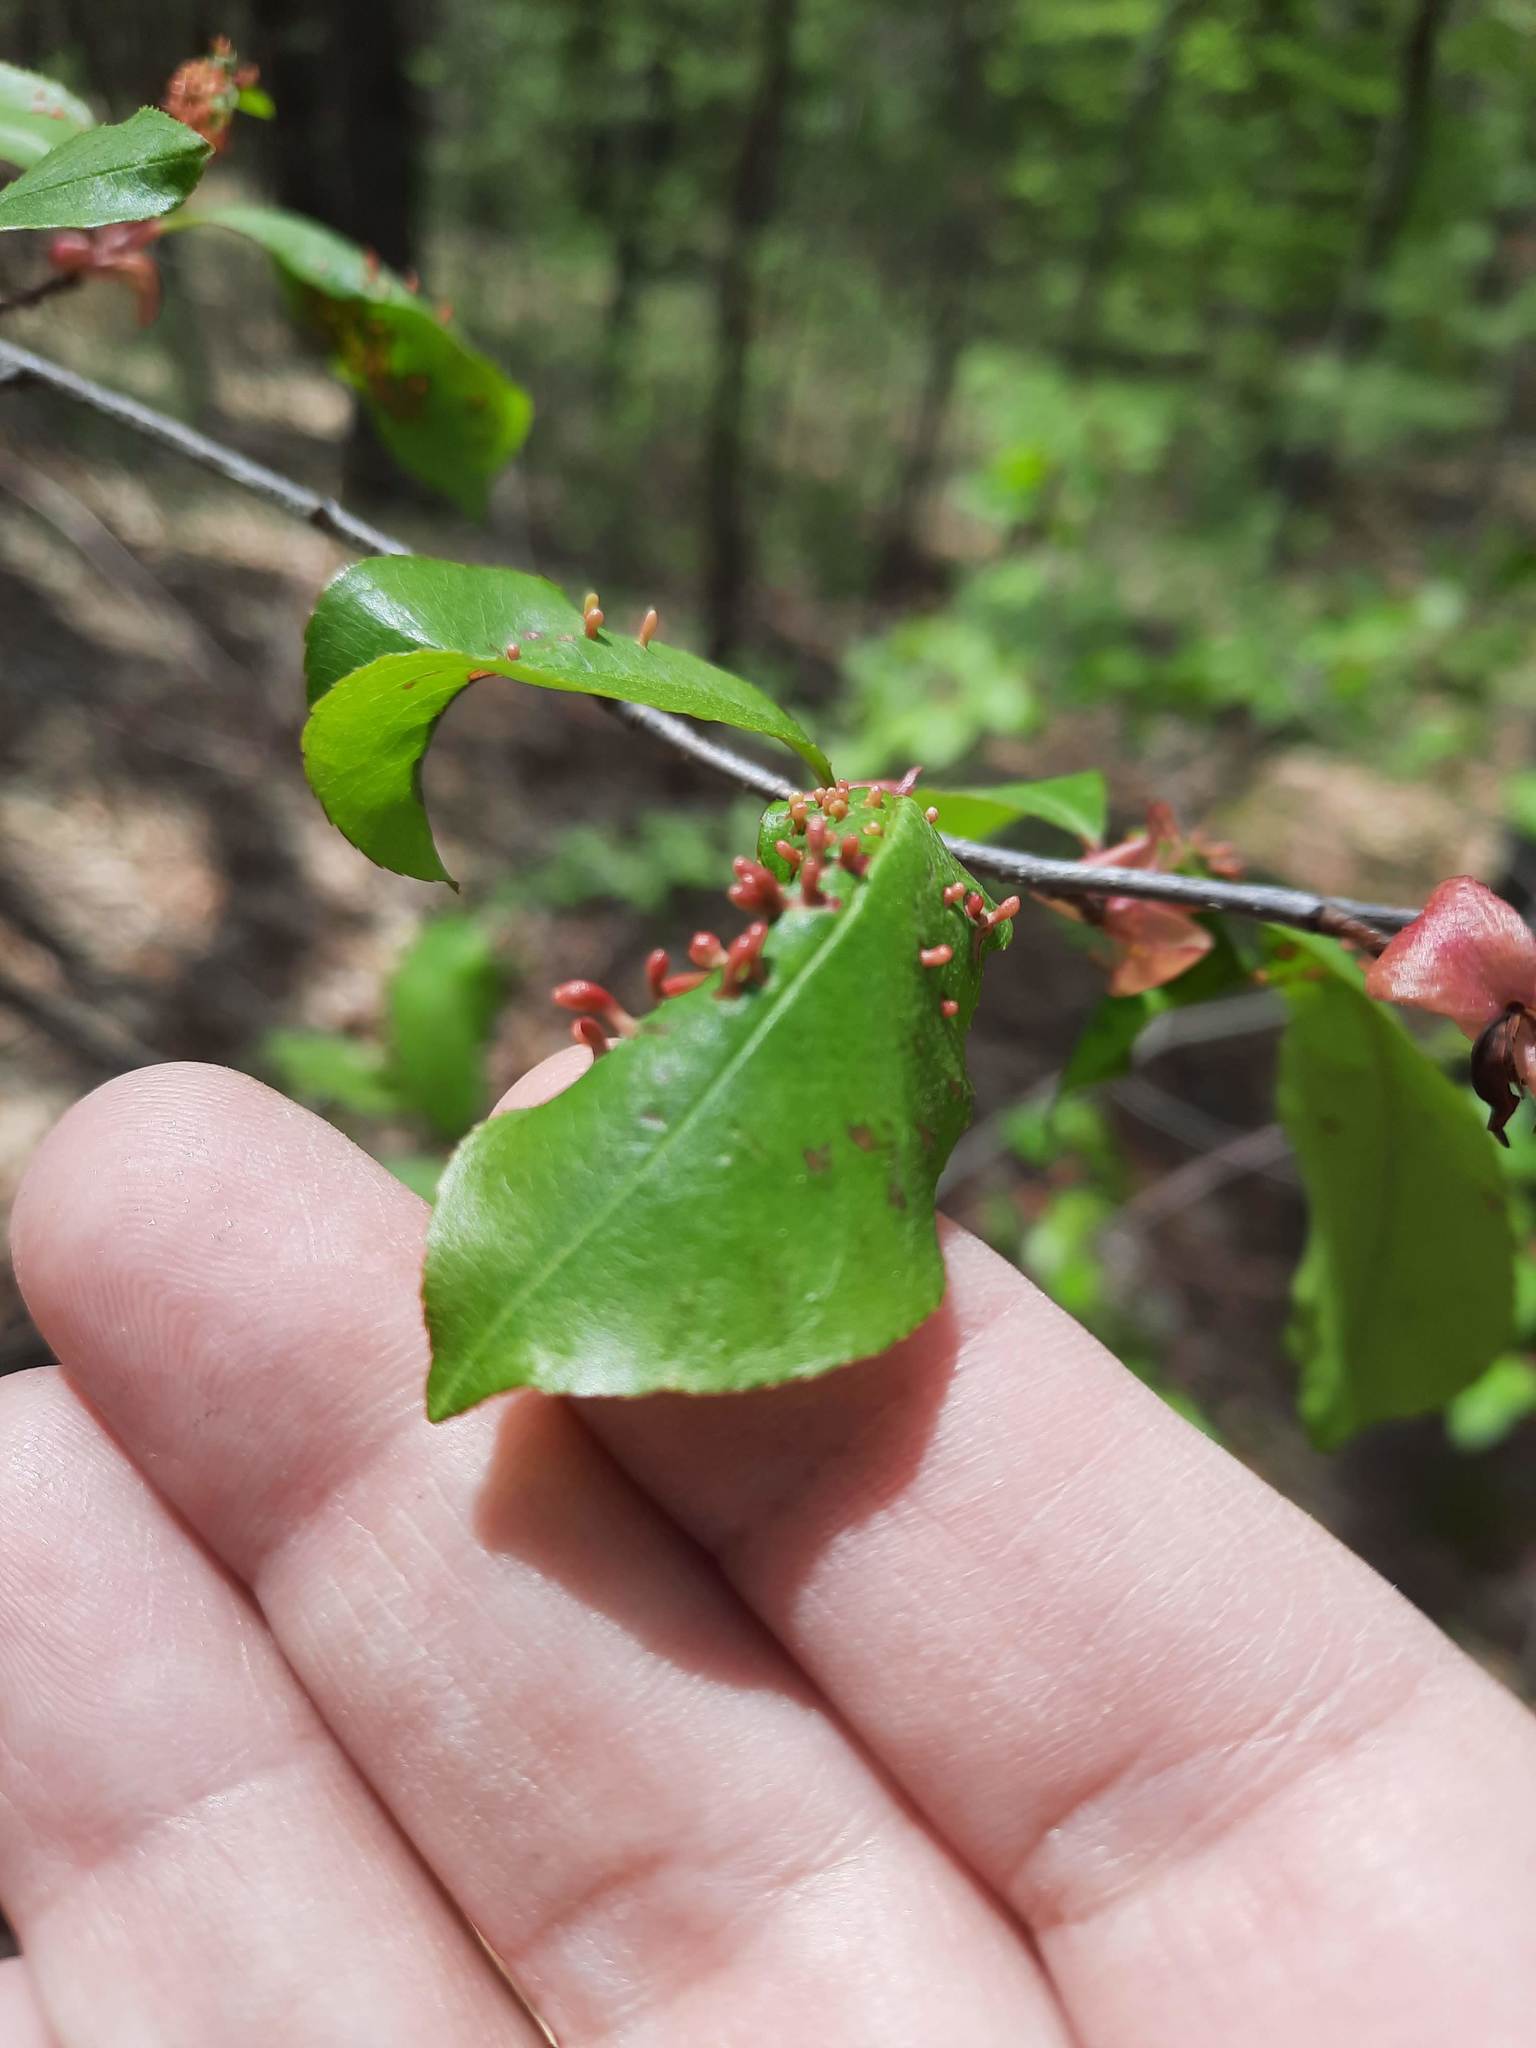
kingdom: Animalia
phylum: Arthropoda
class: Arachnida
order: Trombidiformes
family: Eriophyidae
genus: Eriophyes
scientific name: Eriophyes
